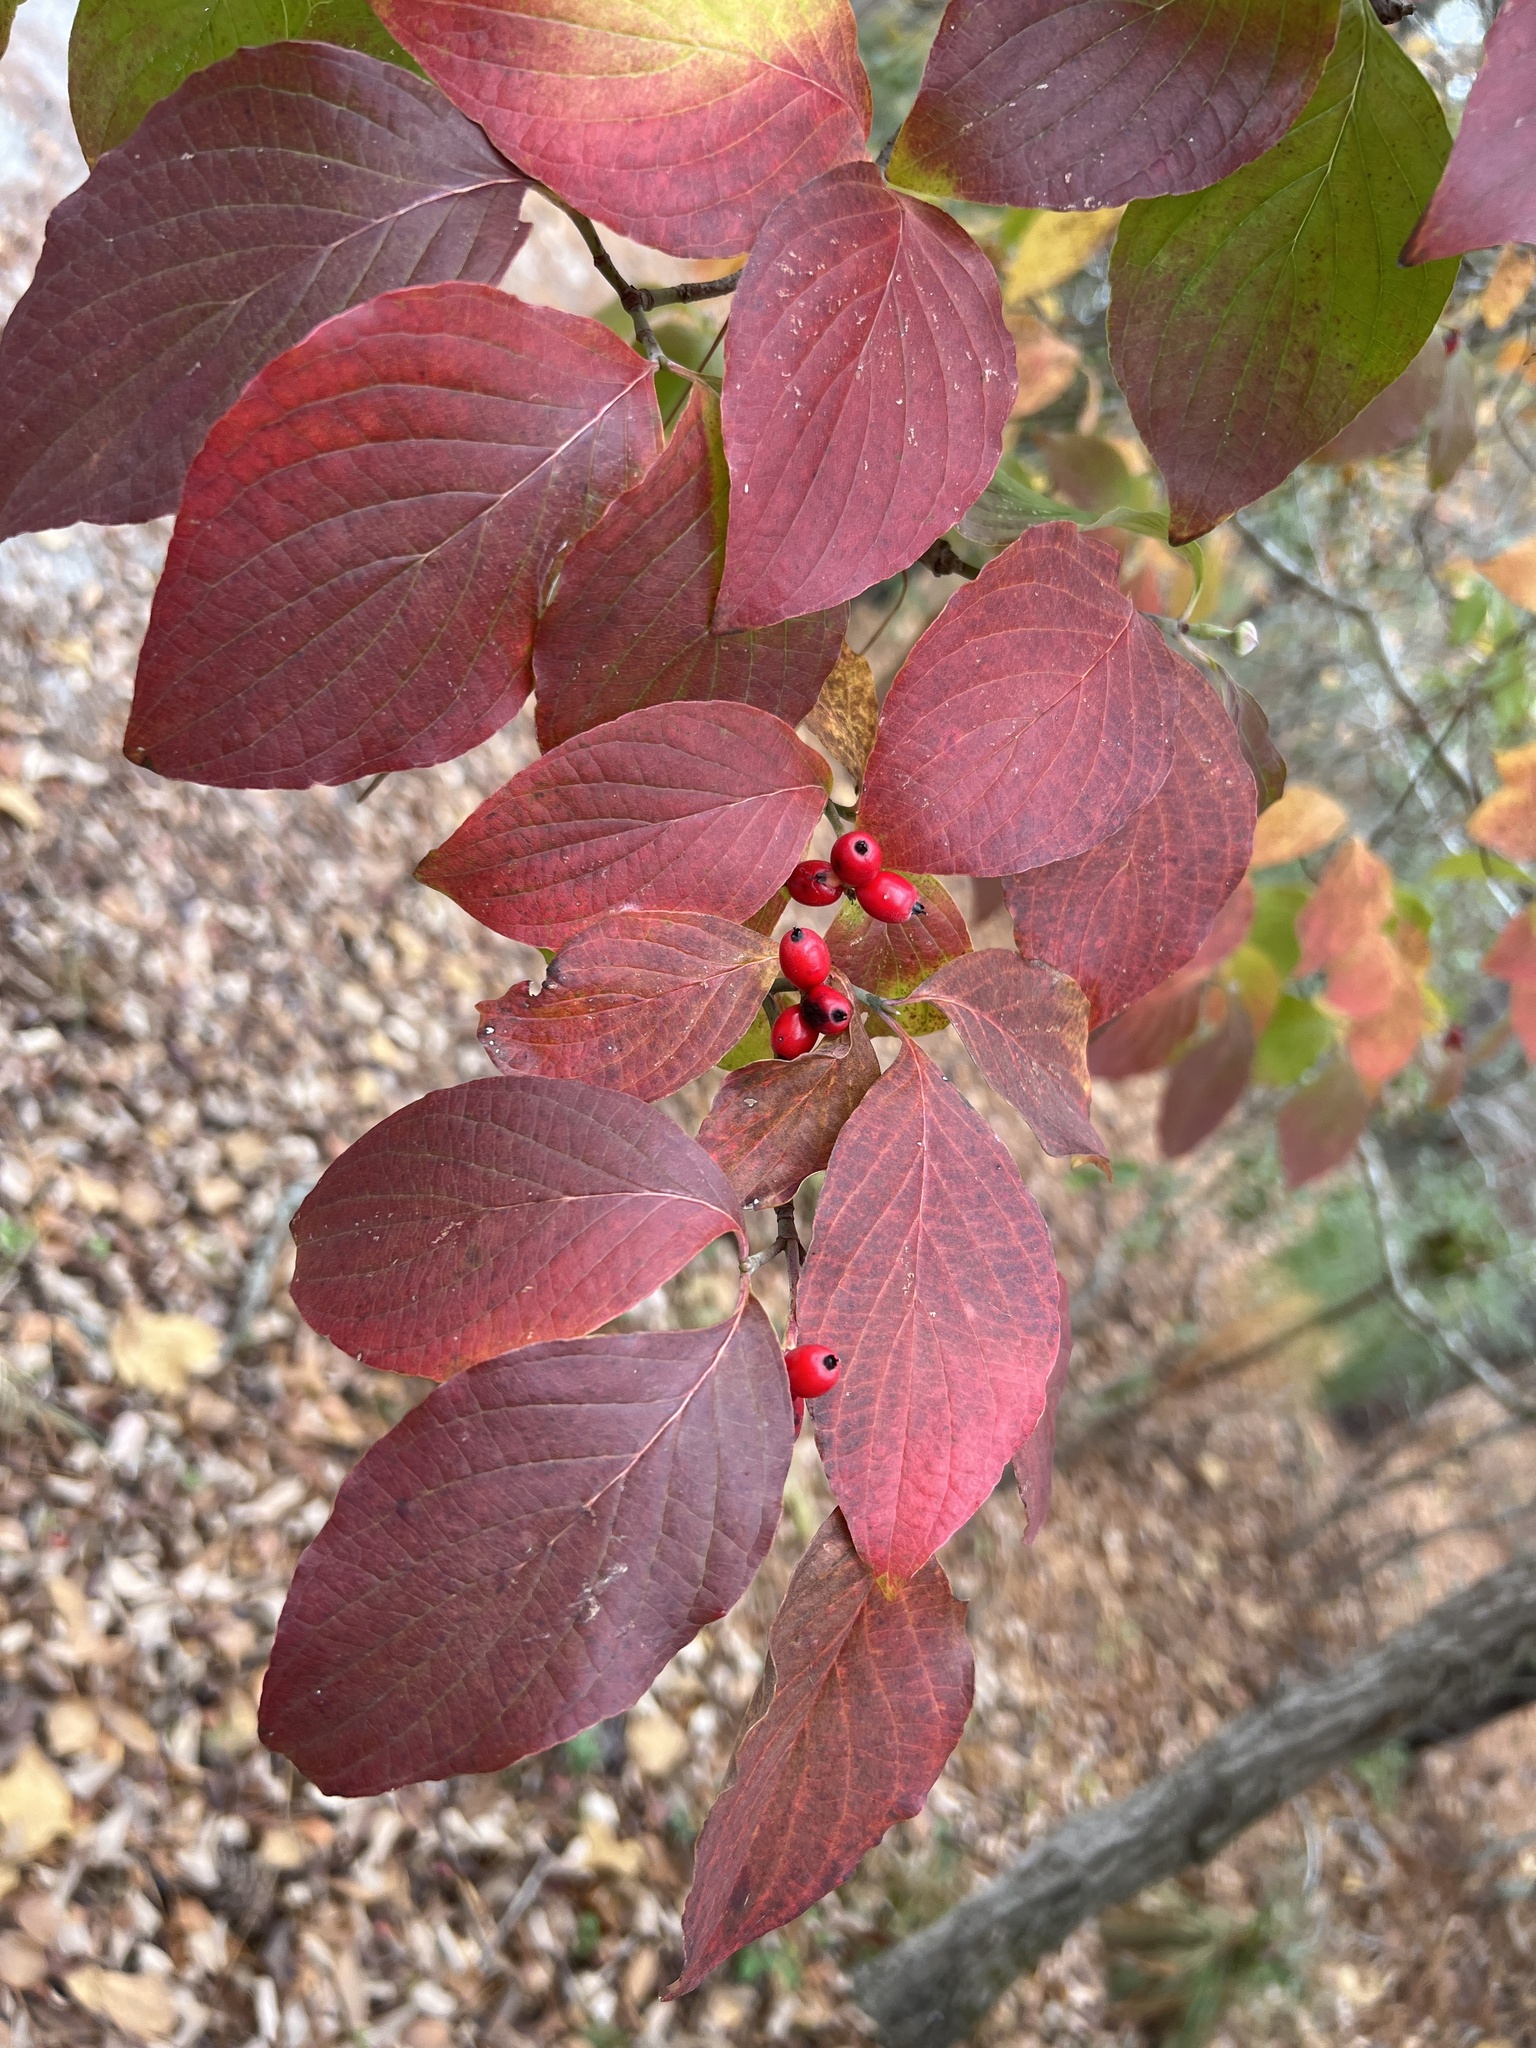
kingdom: Plantae
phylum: Tracheophyta
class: Magnoliopsida
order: Cornales
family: Cornaceae
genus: Cornus
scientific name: Cornus florida
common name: Flowering dogwood
